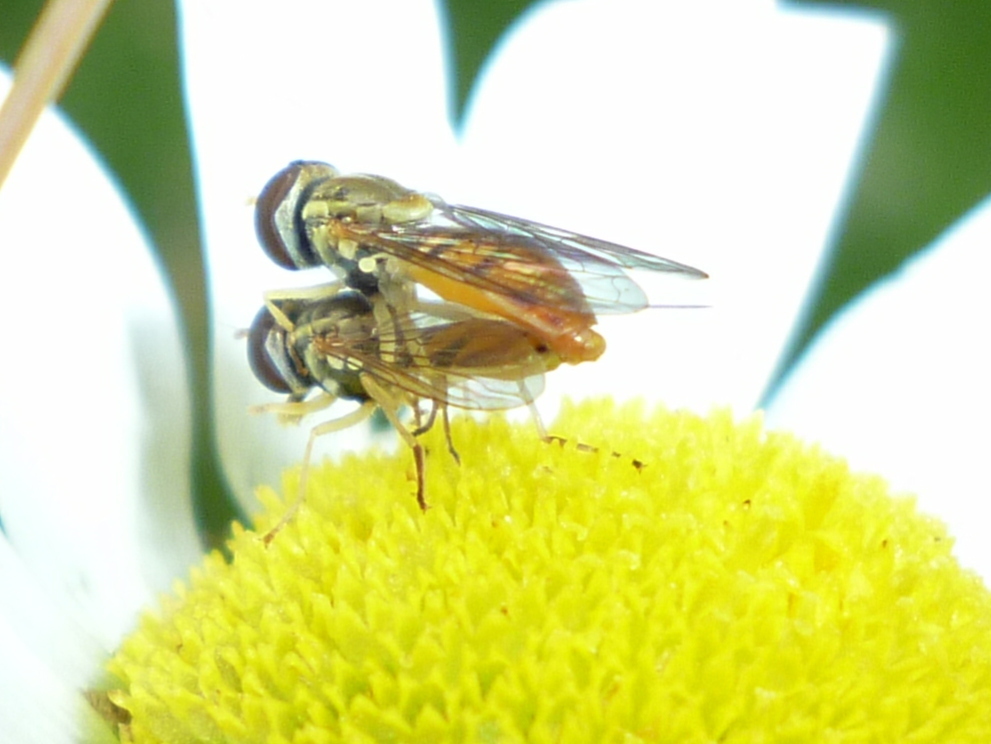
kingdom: Animalia
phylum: Arthropoda
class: Insecta
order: Diptera
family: Syrphidae
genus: Toxomerus
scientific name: Toxomerus marginatus
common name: Syrphid fly
